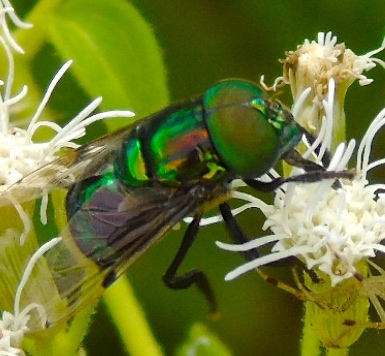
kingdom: Animalia
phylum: Arthropoda
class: Insecta
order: Diptera
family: Syrphidae
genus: Ornidia
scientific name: Ornidia obesa
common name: Syrphid fly
